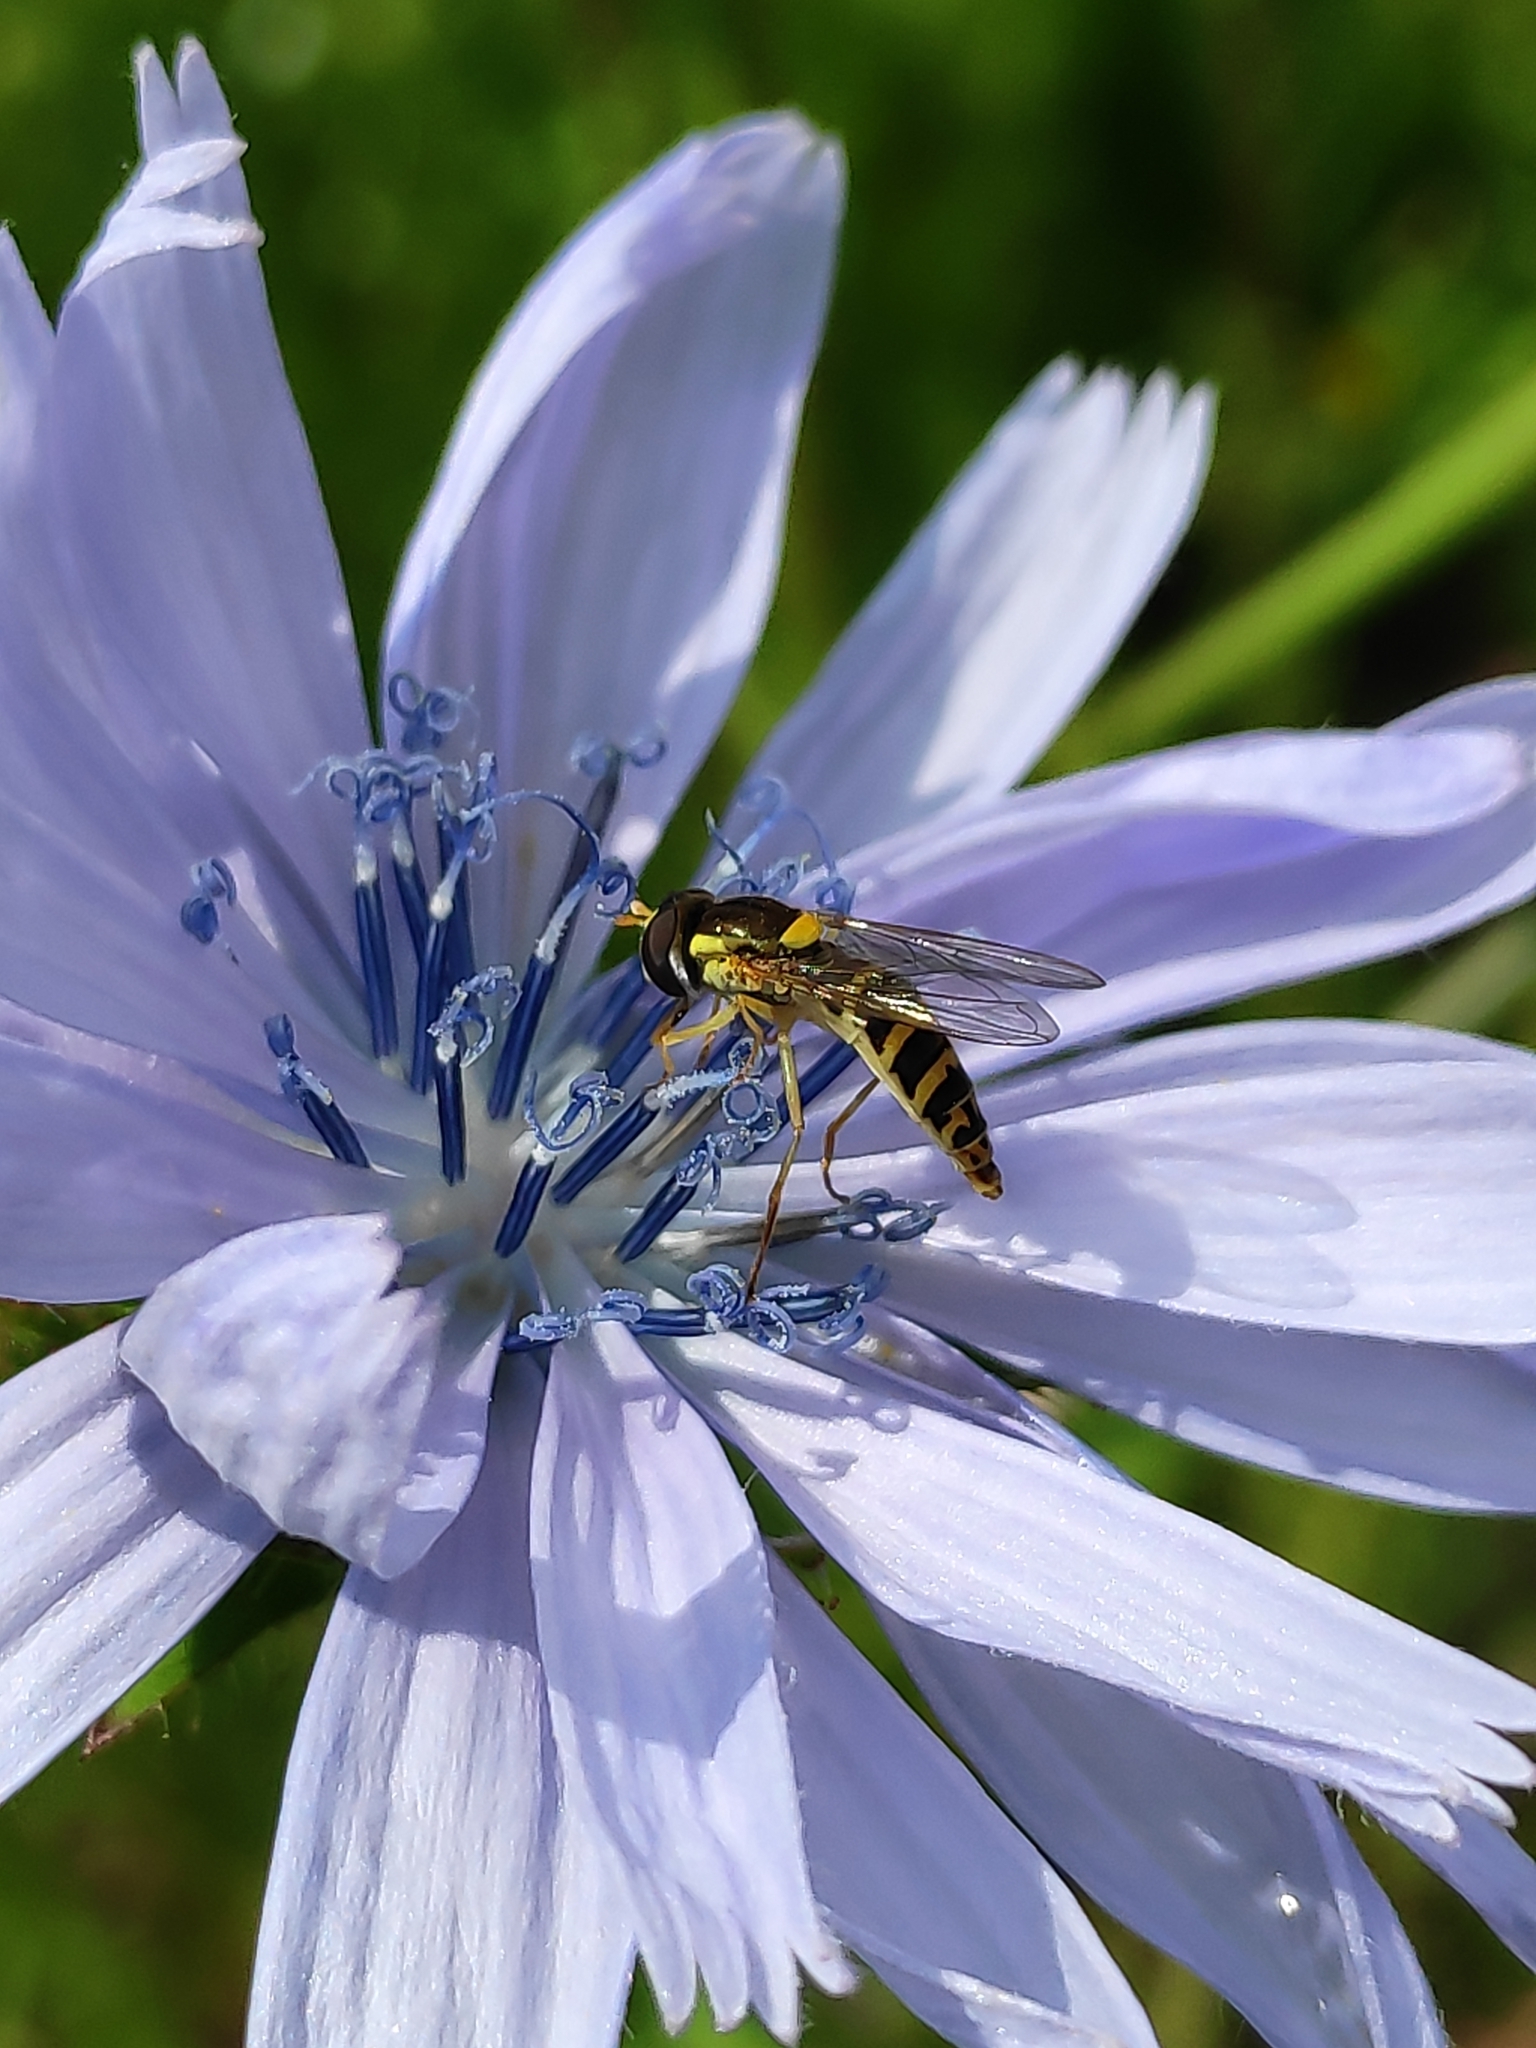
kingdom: Animalia
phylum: Arthropoda
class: Insecta
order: Diptera
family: Syrphidae
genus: Sphaerophoria
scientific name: Sphaerophoria
